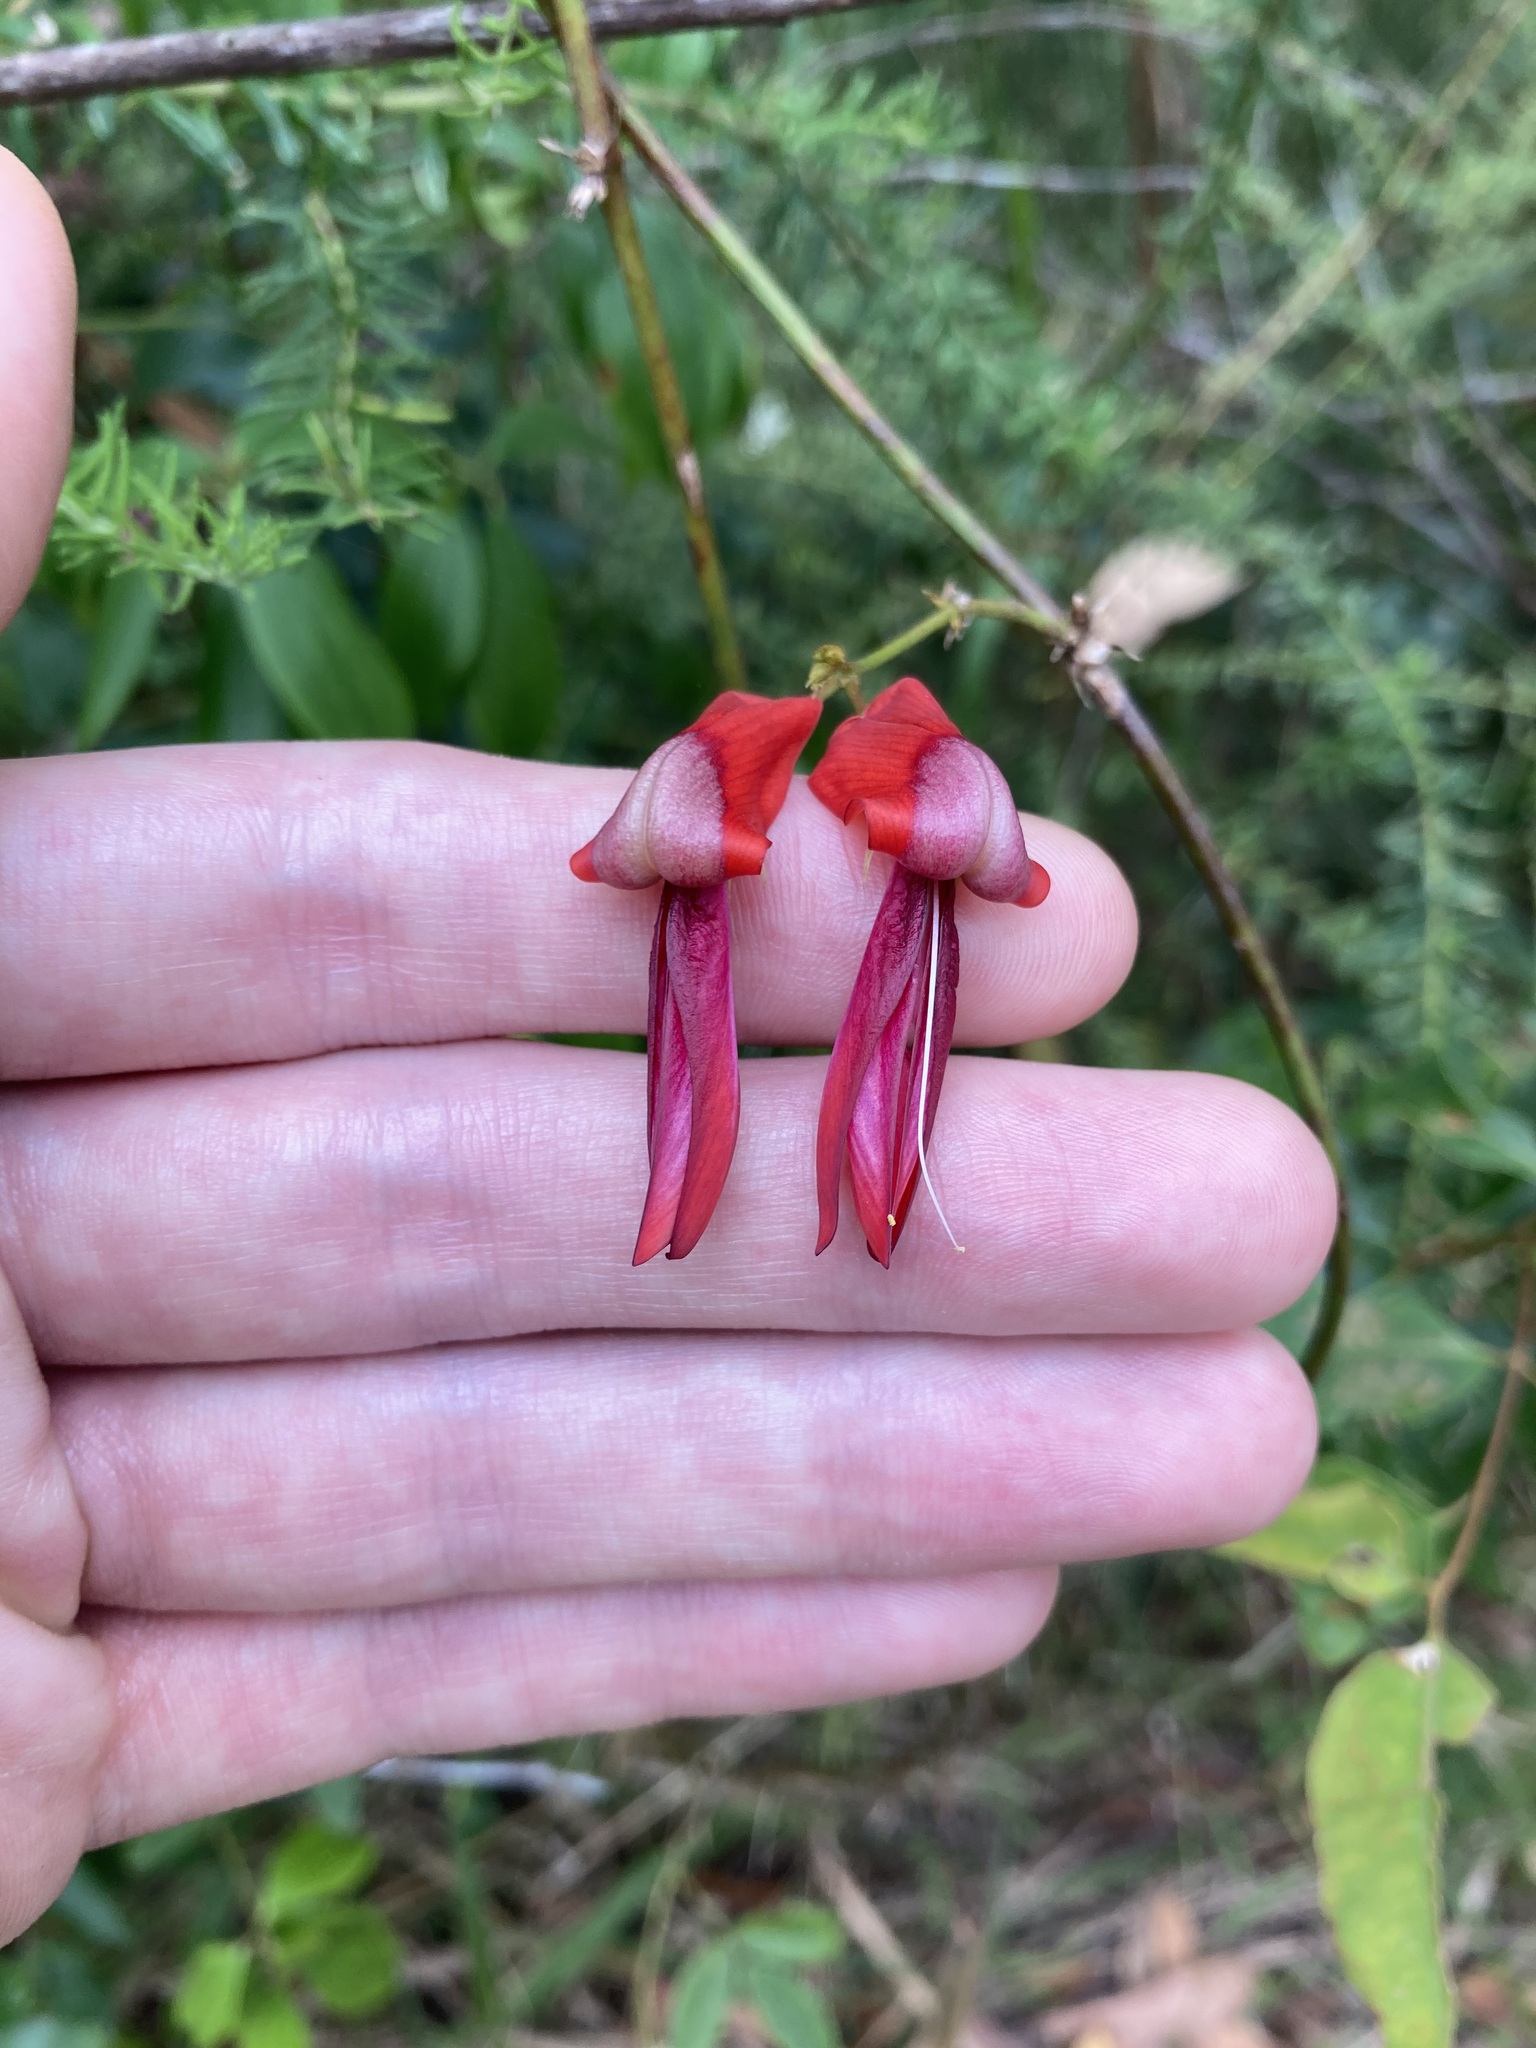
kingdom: Plantae
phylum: Tracheophyta
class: Magnoliopsida
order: Fabales
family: Fabaceae
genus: Kennedia
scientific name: Kennedia rubicunda
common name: Red kennedy-pea
